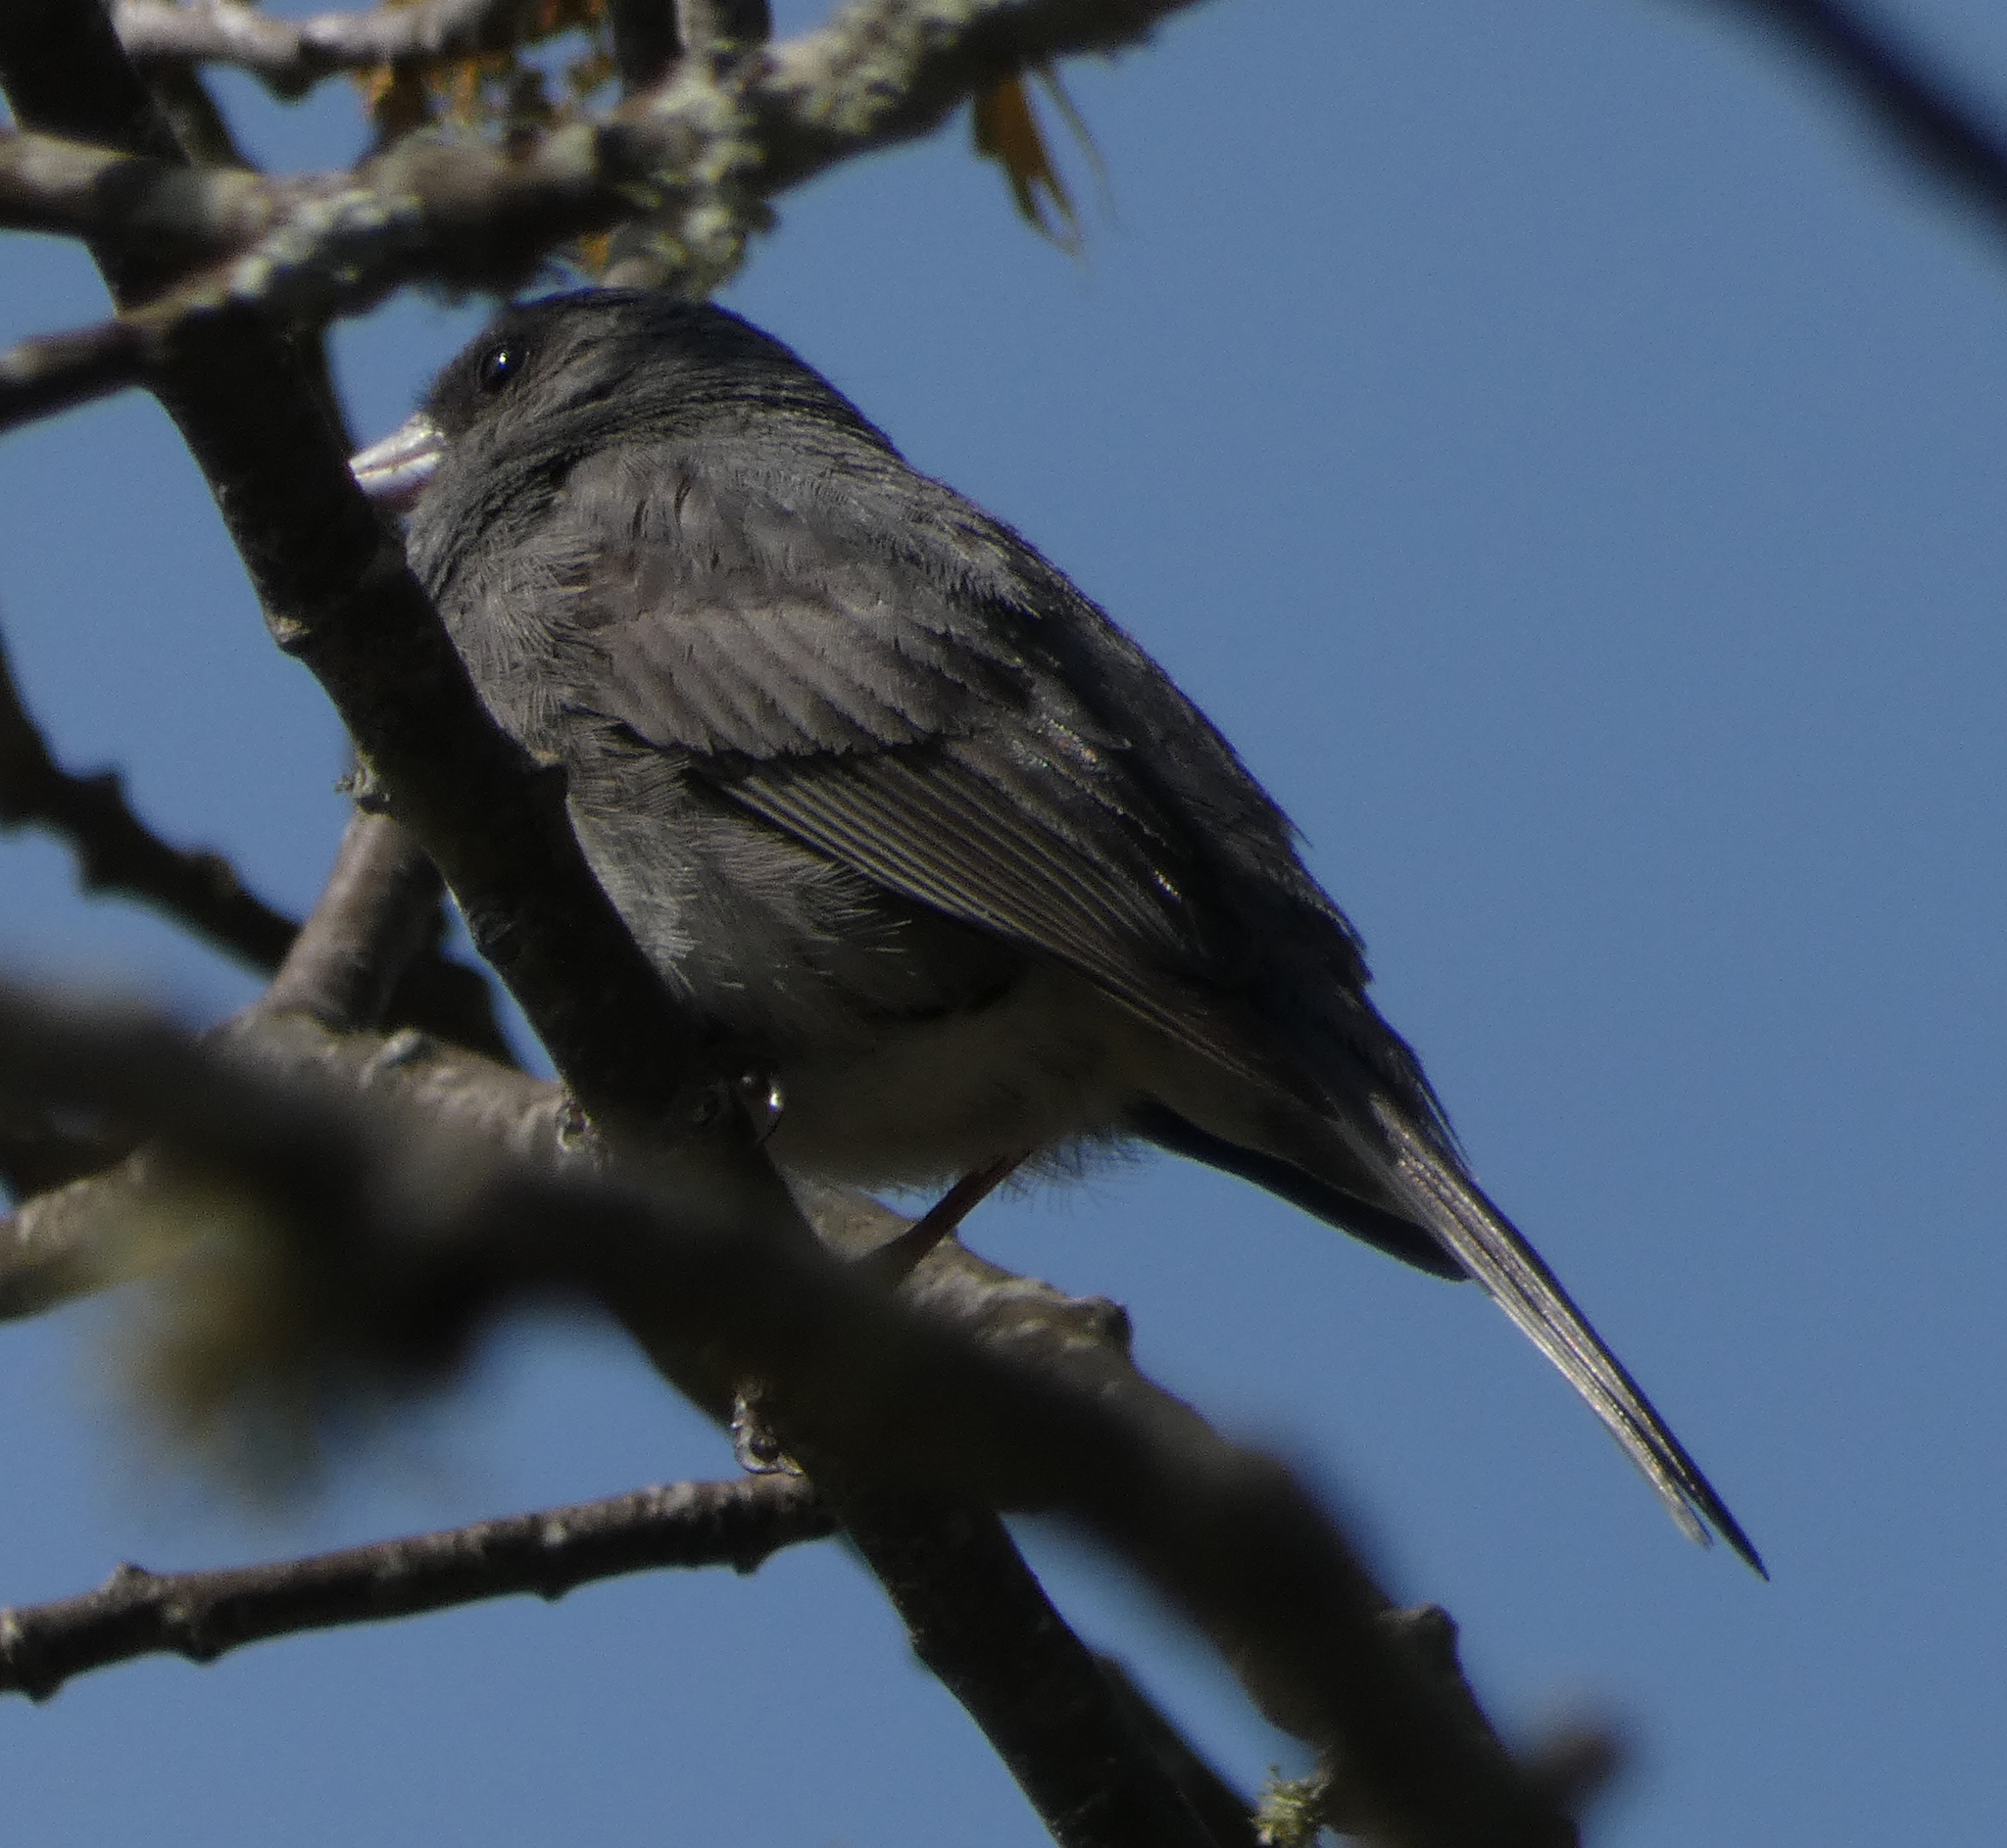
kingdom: Animalia
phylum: Chordata
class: Aves
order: Passeriformes
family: Passerellidae
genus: Junco
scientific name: Junco hyemalis
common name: Dark-eyed junco
